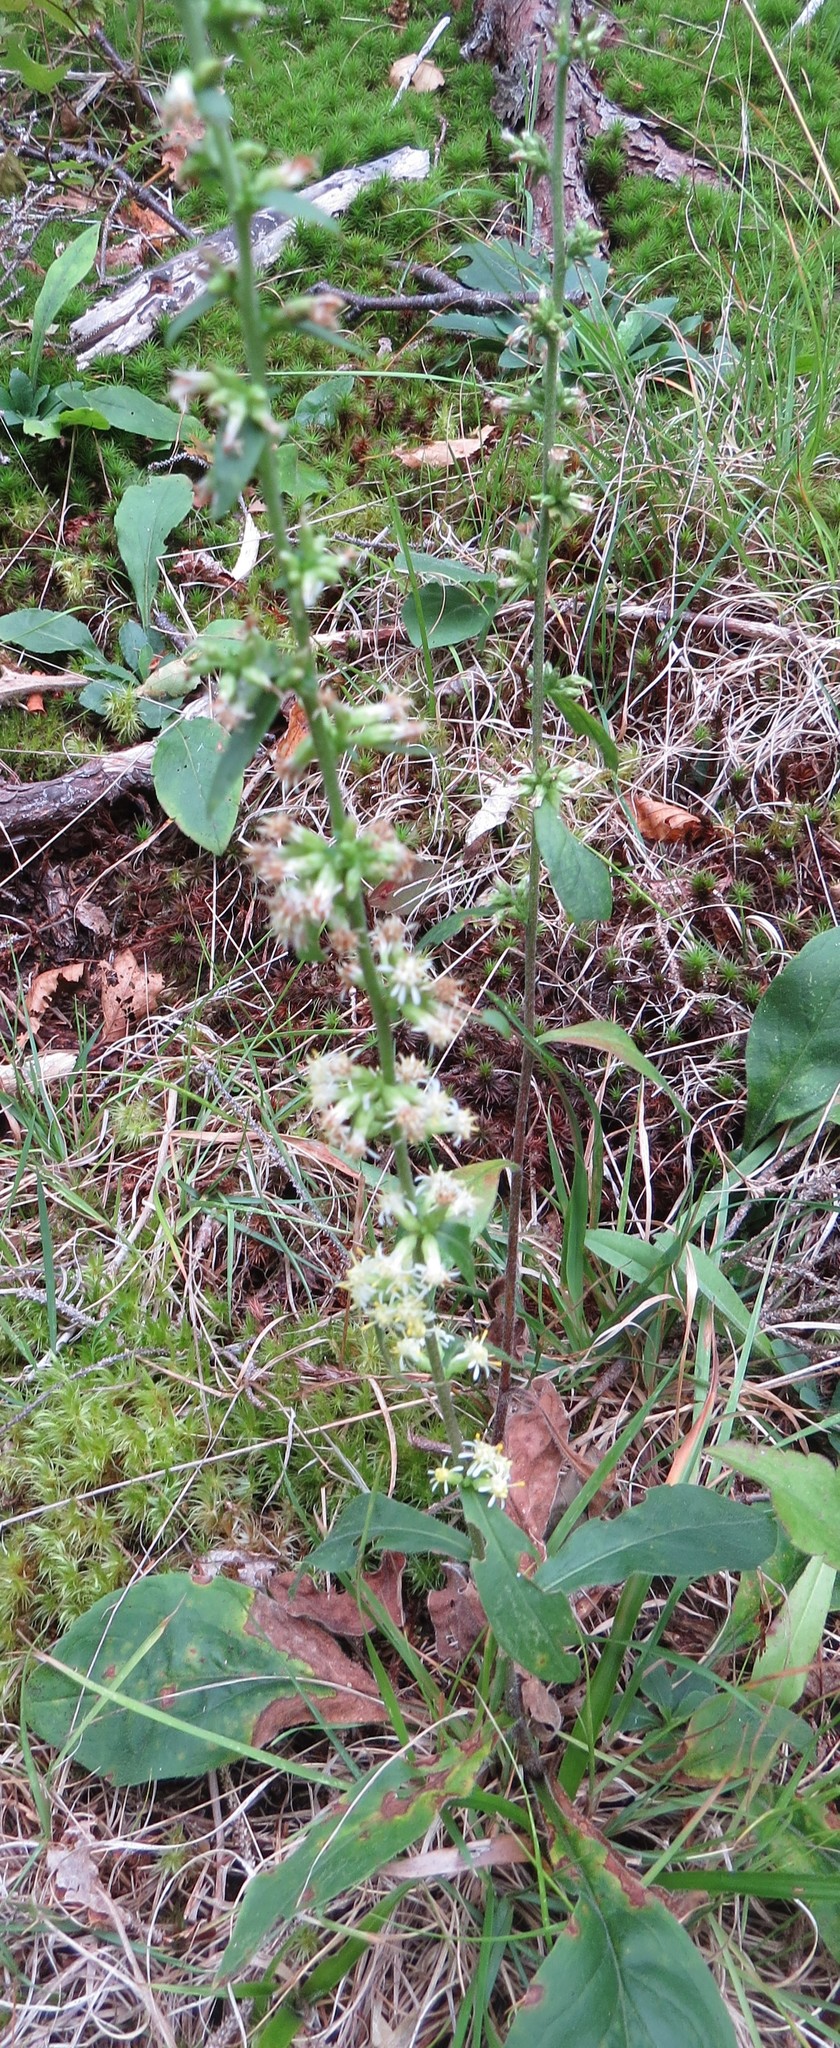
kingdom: Plantae
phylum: Tracheophyta
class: Magnoliopsida
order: Asterales
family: Asteraceae
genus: Solidago
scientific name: Solidago bicolor
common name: Silverrod
